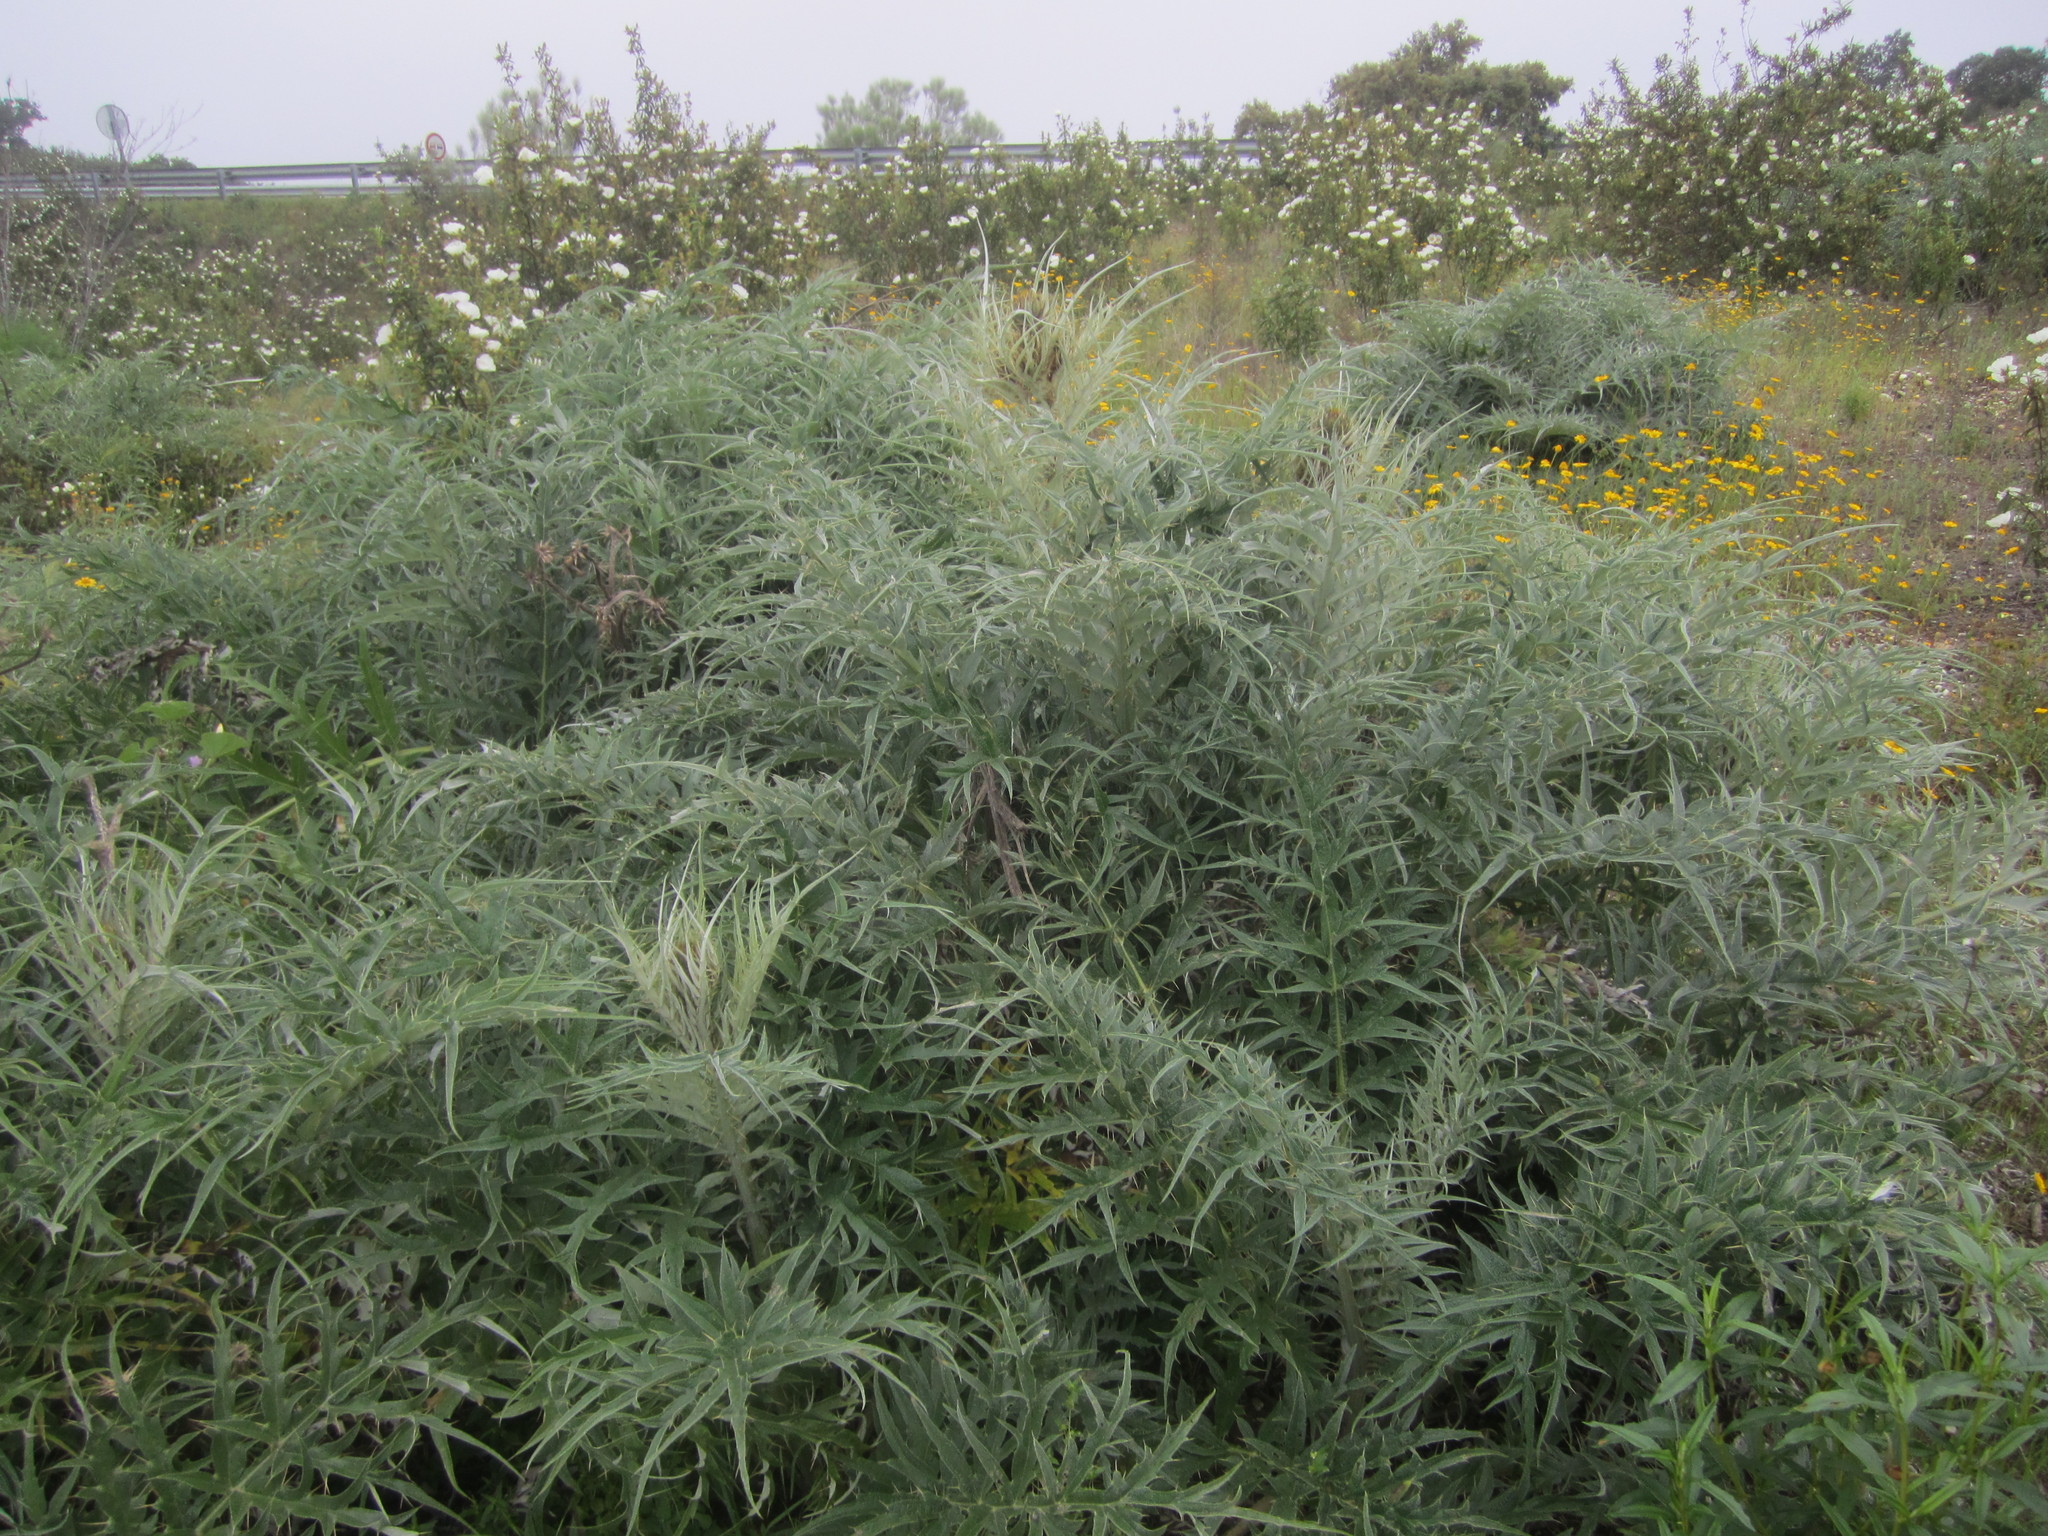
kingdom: Plantae
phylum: Tracheophyta
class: Magnoliopsida
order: Asterales
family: Asteraceae
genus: Cynara
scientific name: Cynara cardunculus
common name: Globe artichoke
